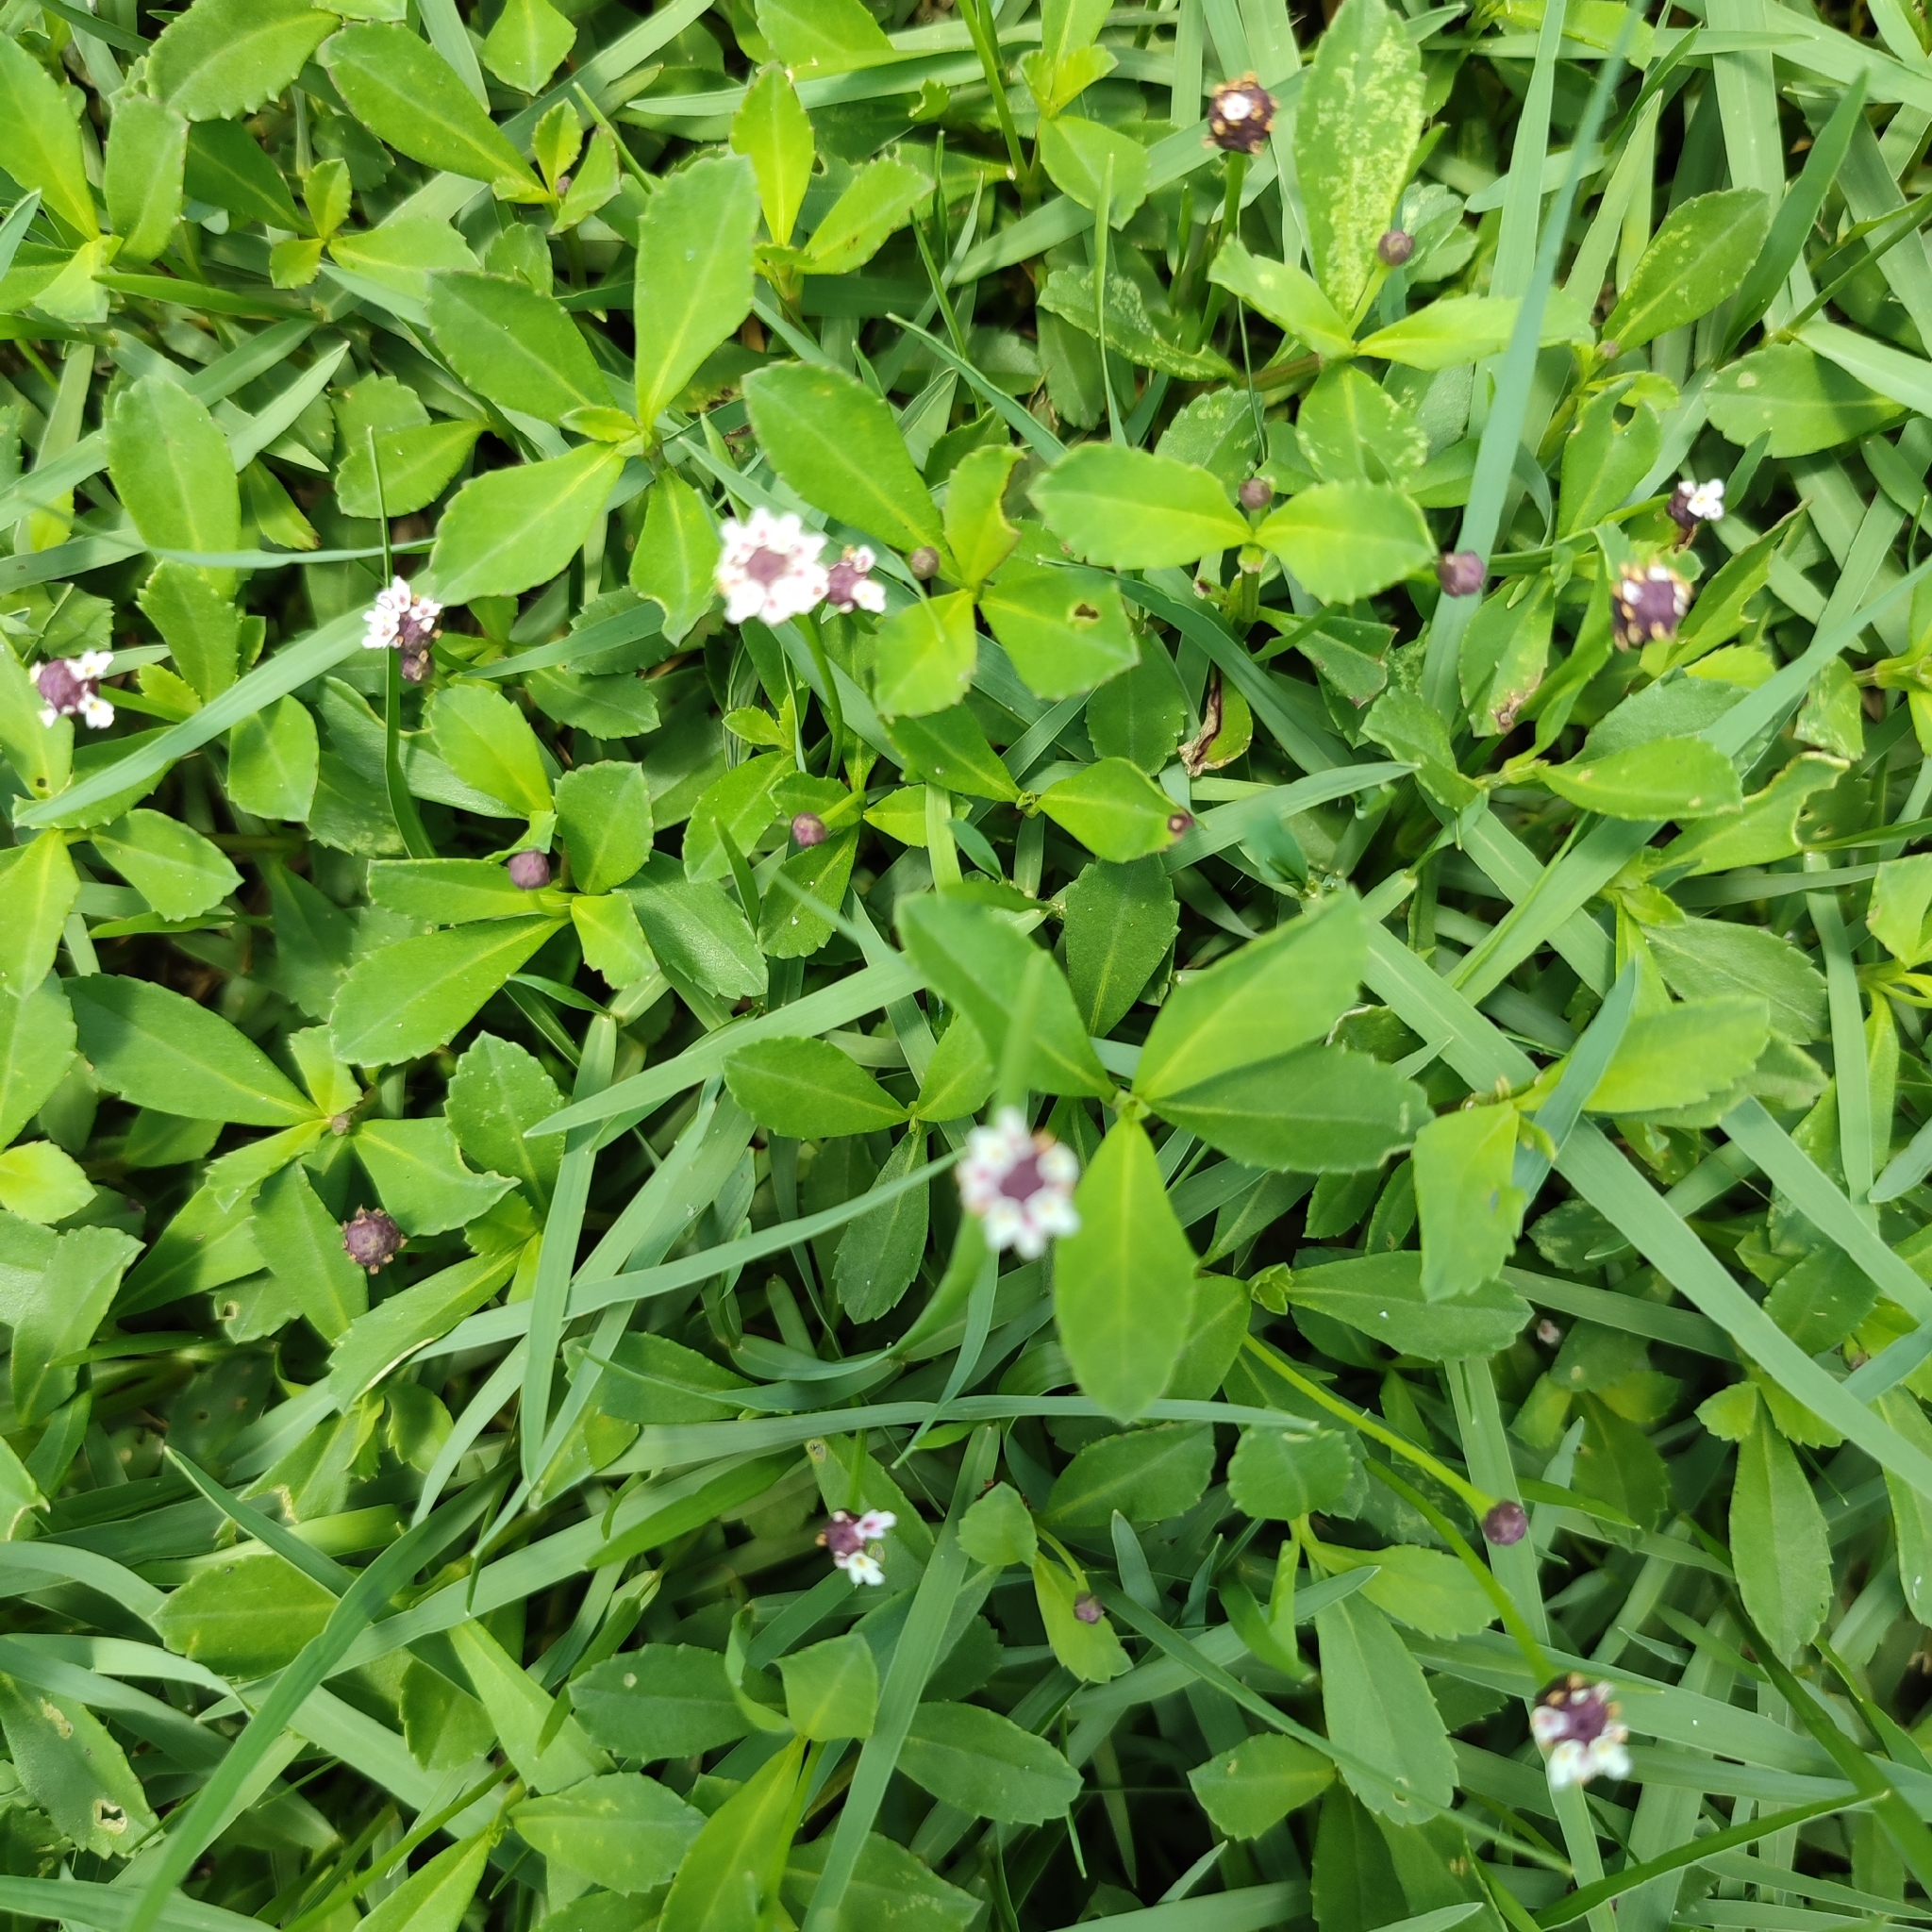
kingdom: Plantae
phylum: Tracheophyta
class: Magnoliopsida
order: Lamiales
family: Verbenaceae
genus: Phyla
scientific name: Phyla nodiflora
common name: Frogfruit
